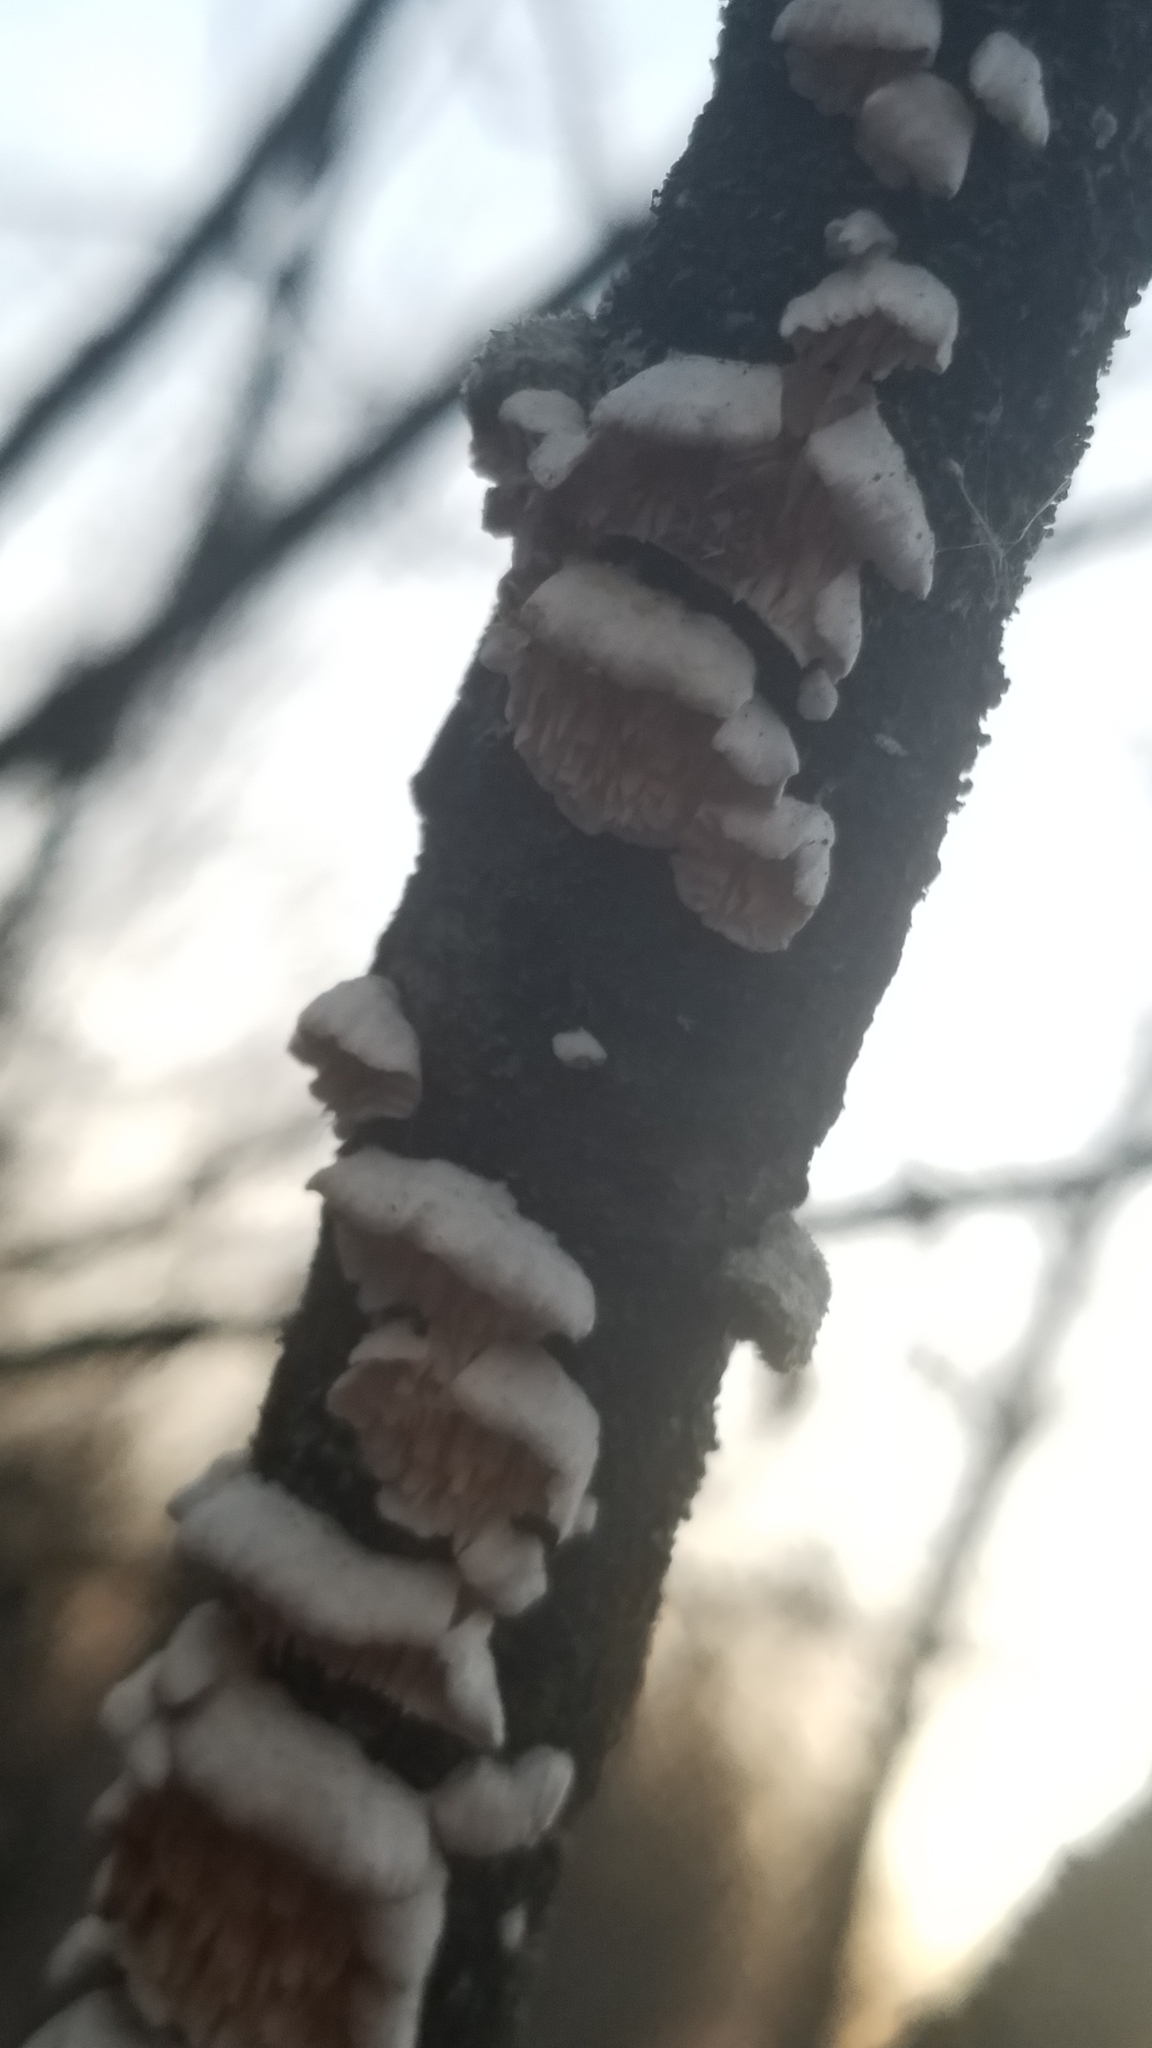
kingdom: Fungi
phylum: Basidiomycota
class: Agaricomycetes
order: Polyporales
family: Irpicaceae
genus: Irpex
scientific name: Irpex lacteus
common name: Milk-white toothed polypore
